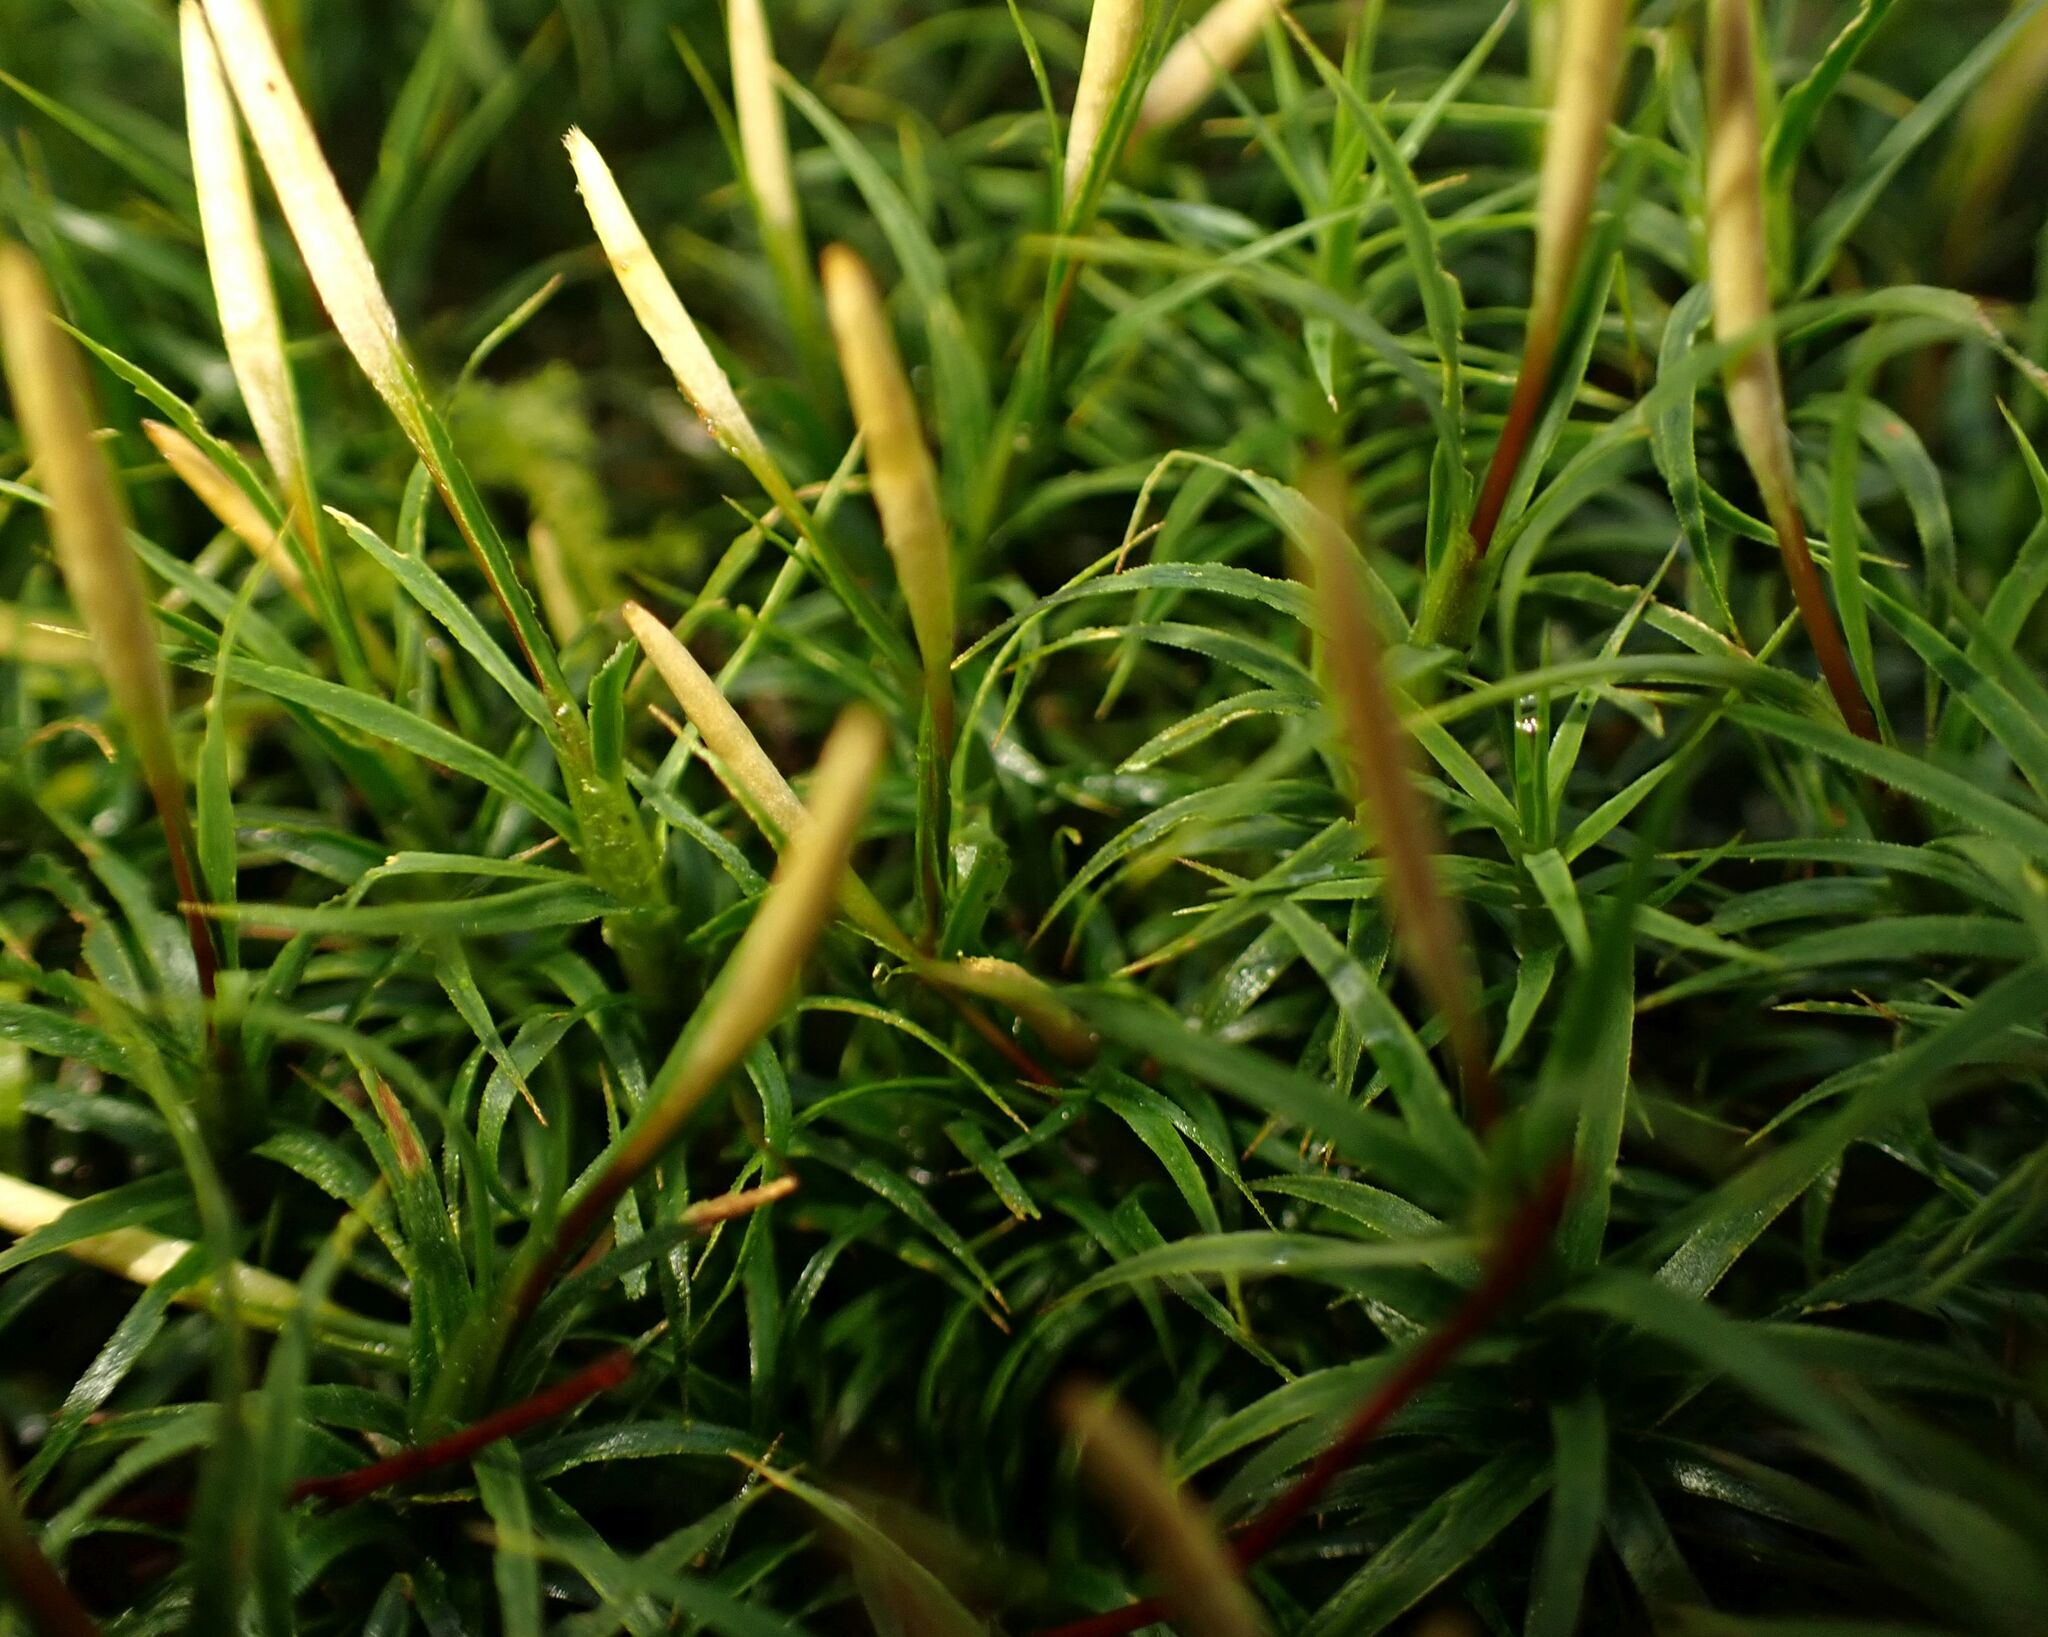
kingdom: Plantae
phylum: Bryophyta
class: Polytrichopsida
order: Polytrichales
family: Polytrichaceae
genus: Polytrichum
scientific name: Polytrichum formosum
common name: Bank haircap moss
